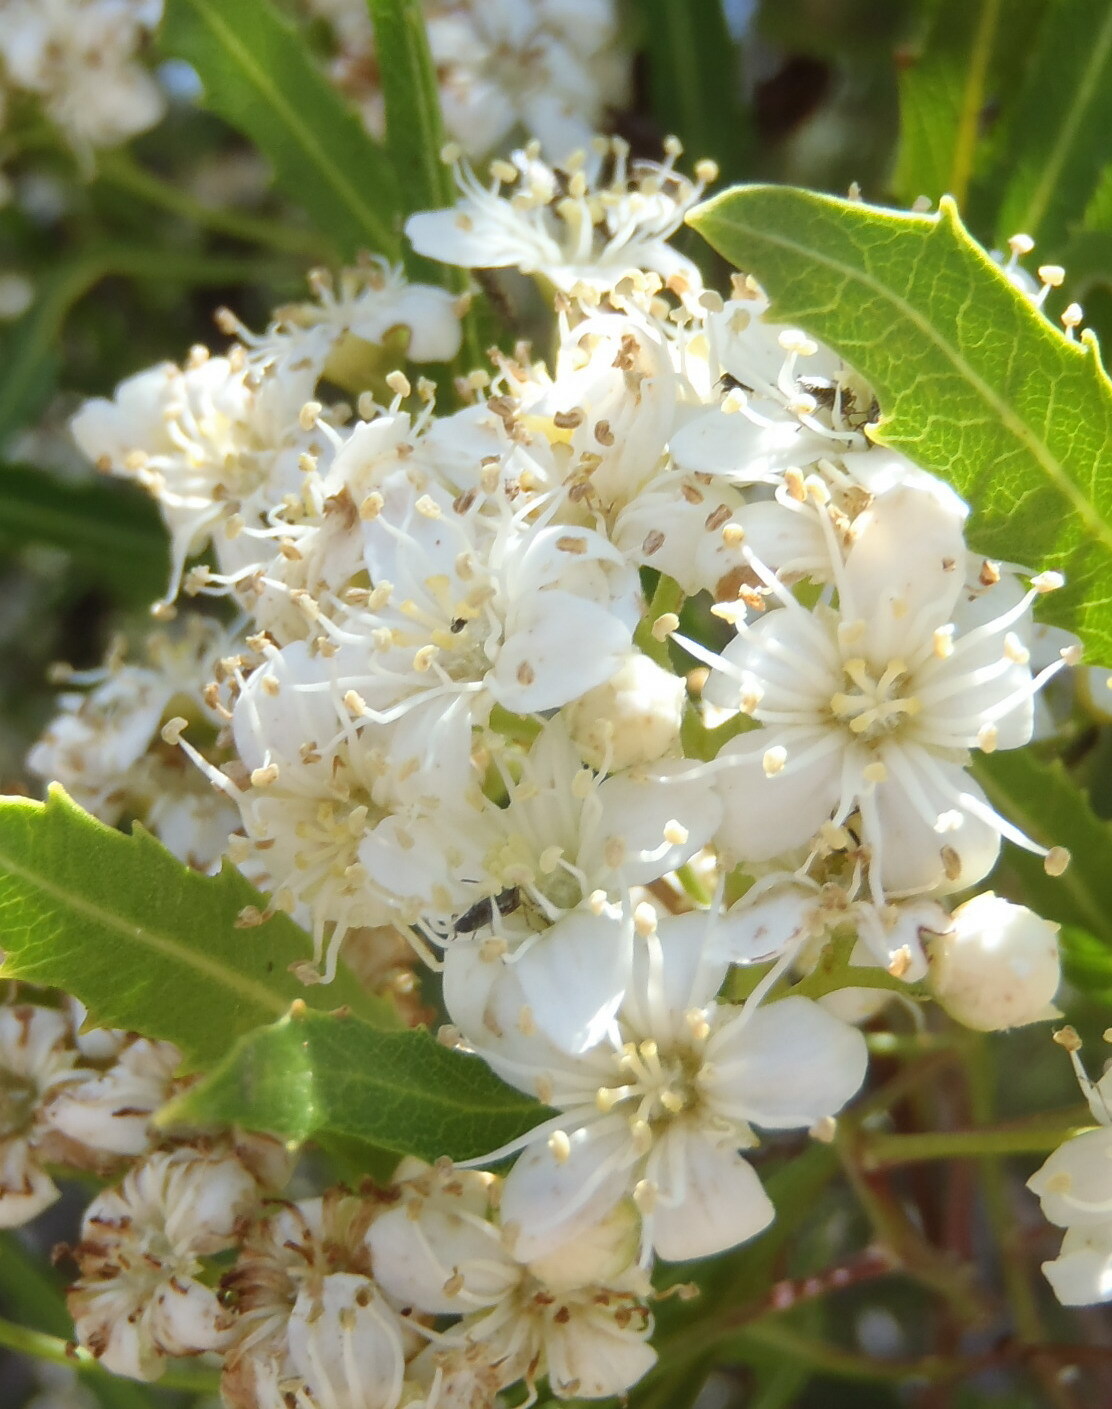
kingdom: Plantae
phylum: Tracheophyta
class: Magnoliopsida
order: Rosales
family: Rosaceae
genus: Vauquelinia
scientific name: Vauquelinia corymbosa
